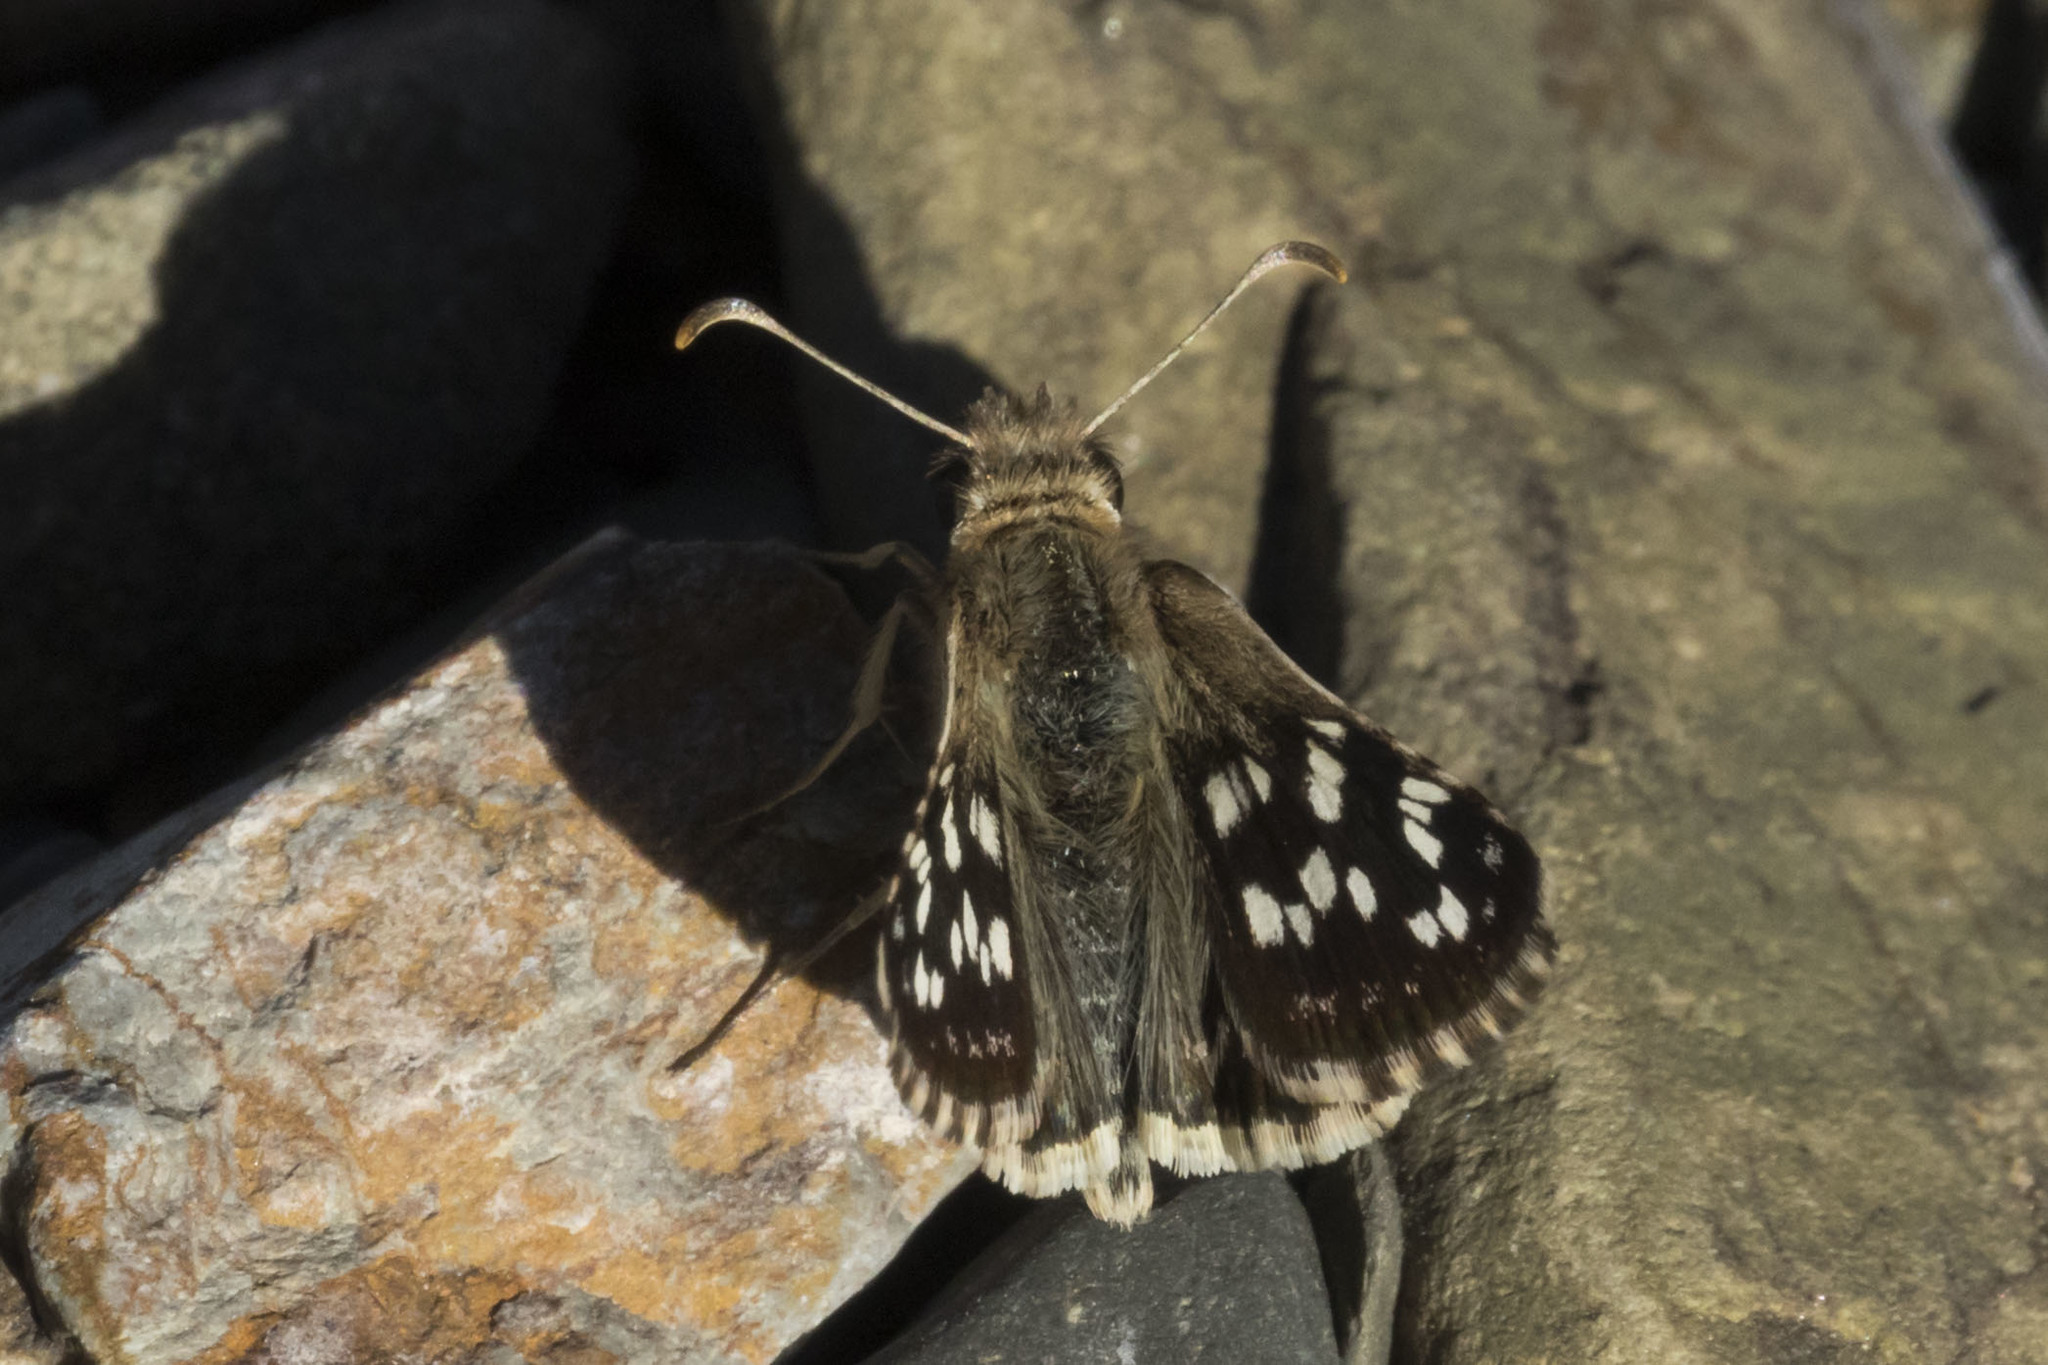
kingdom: Animalia
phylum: Arthropoda
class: Insecta
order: Lepidoptera
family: Hesperiidae
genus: Chirgus
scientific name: Chirgus fides
